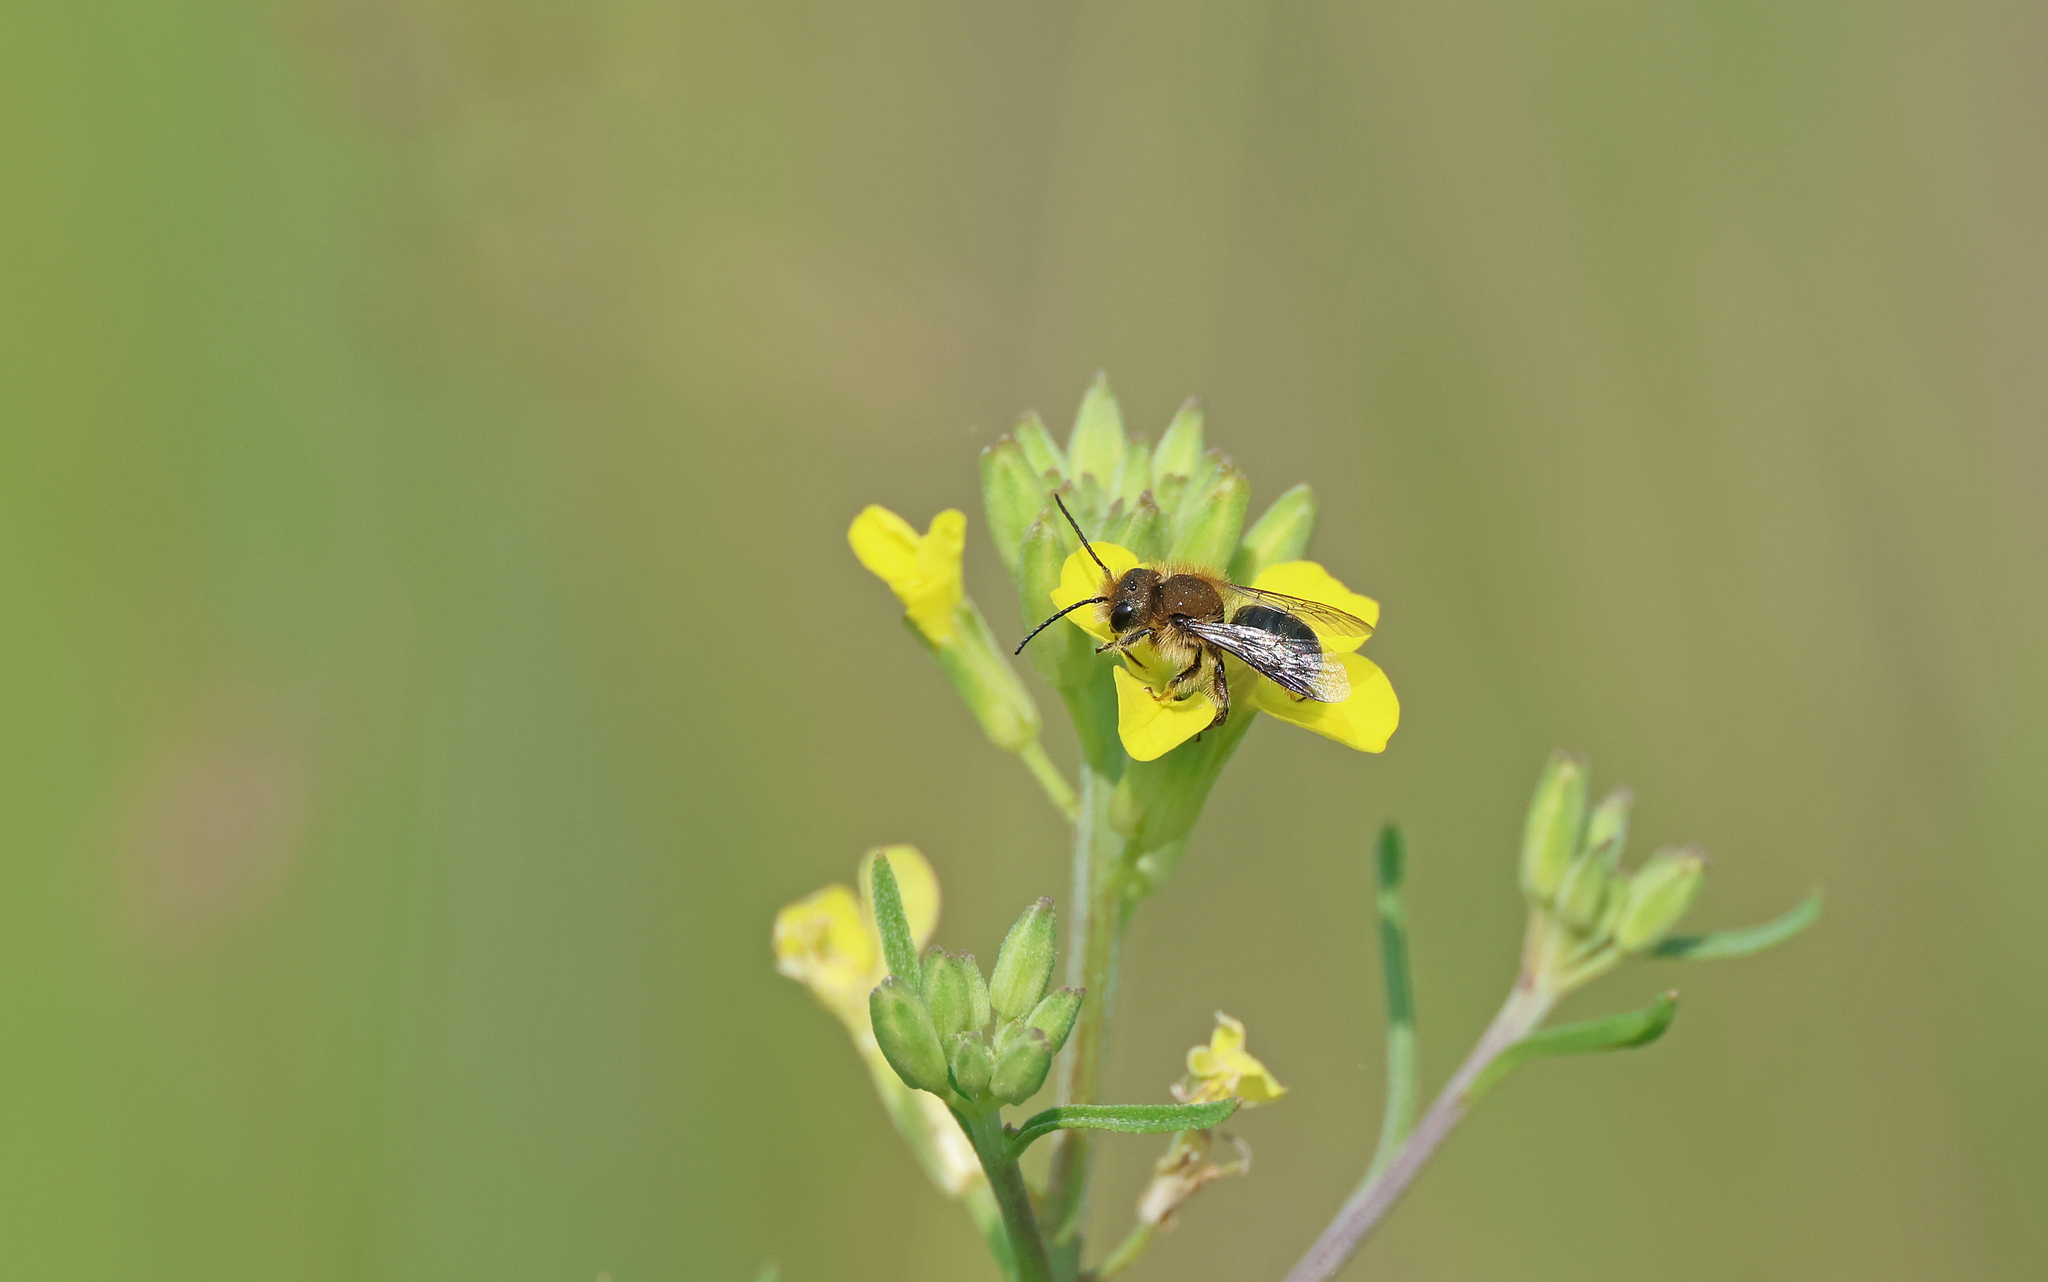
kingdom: Animalia
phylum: Arthropoda
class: Insecta
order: Hymenoptera
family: Megachilidae
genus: Osmia
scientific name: Osmia brevicornis
